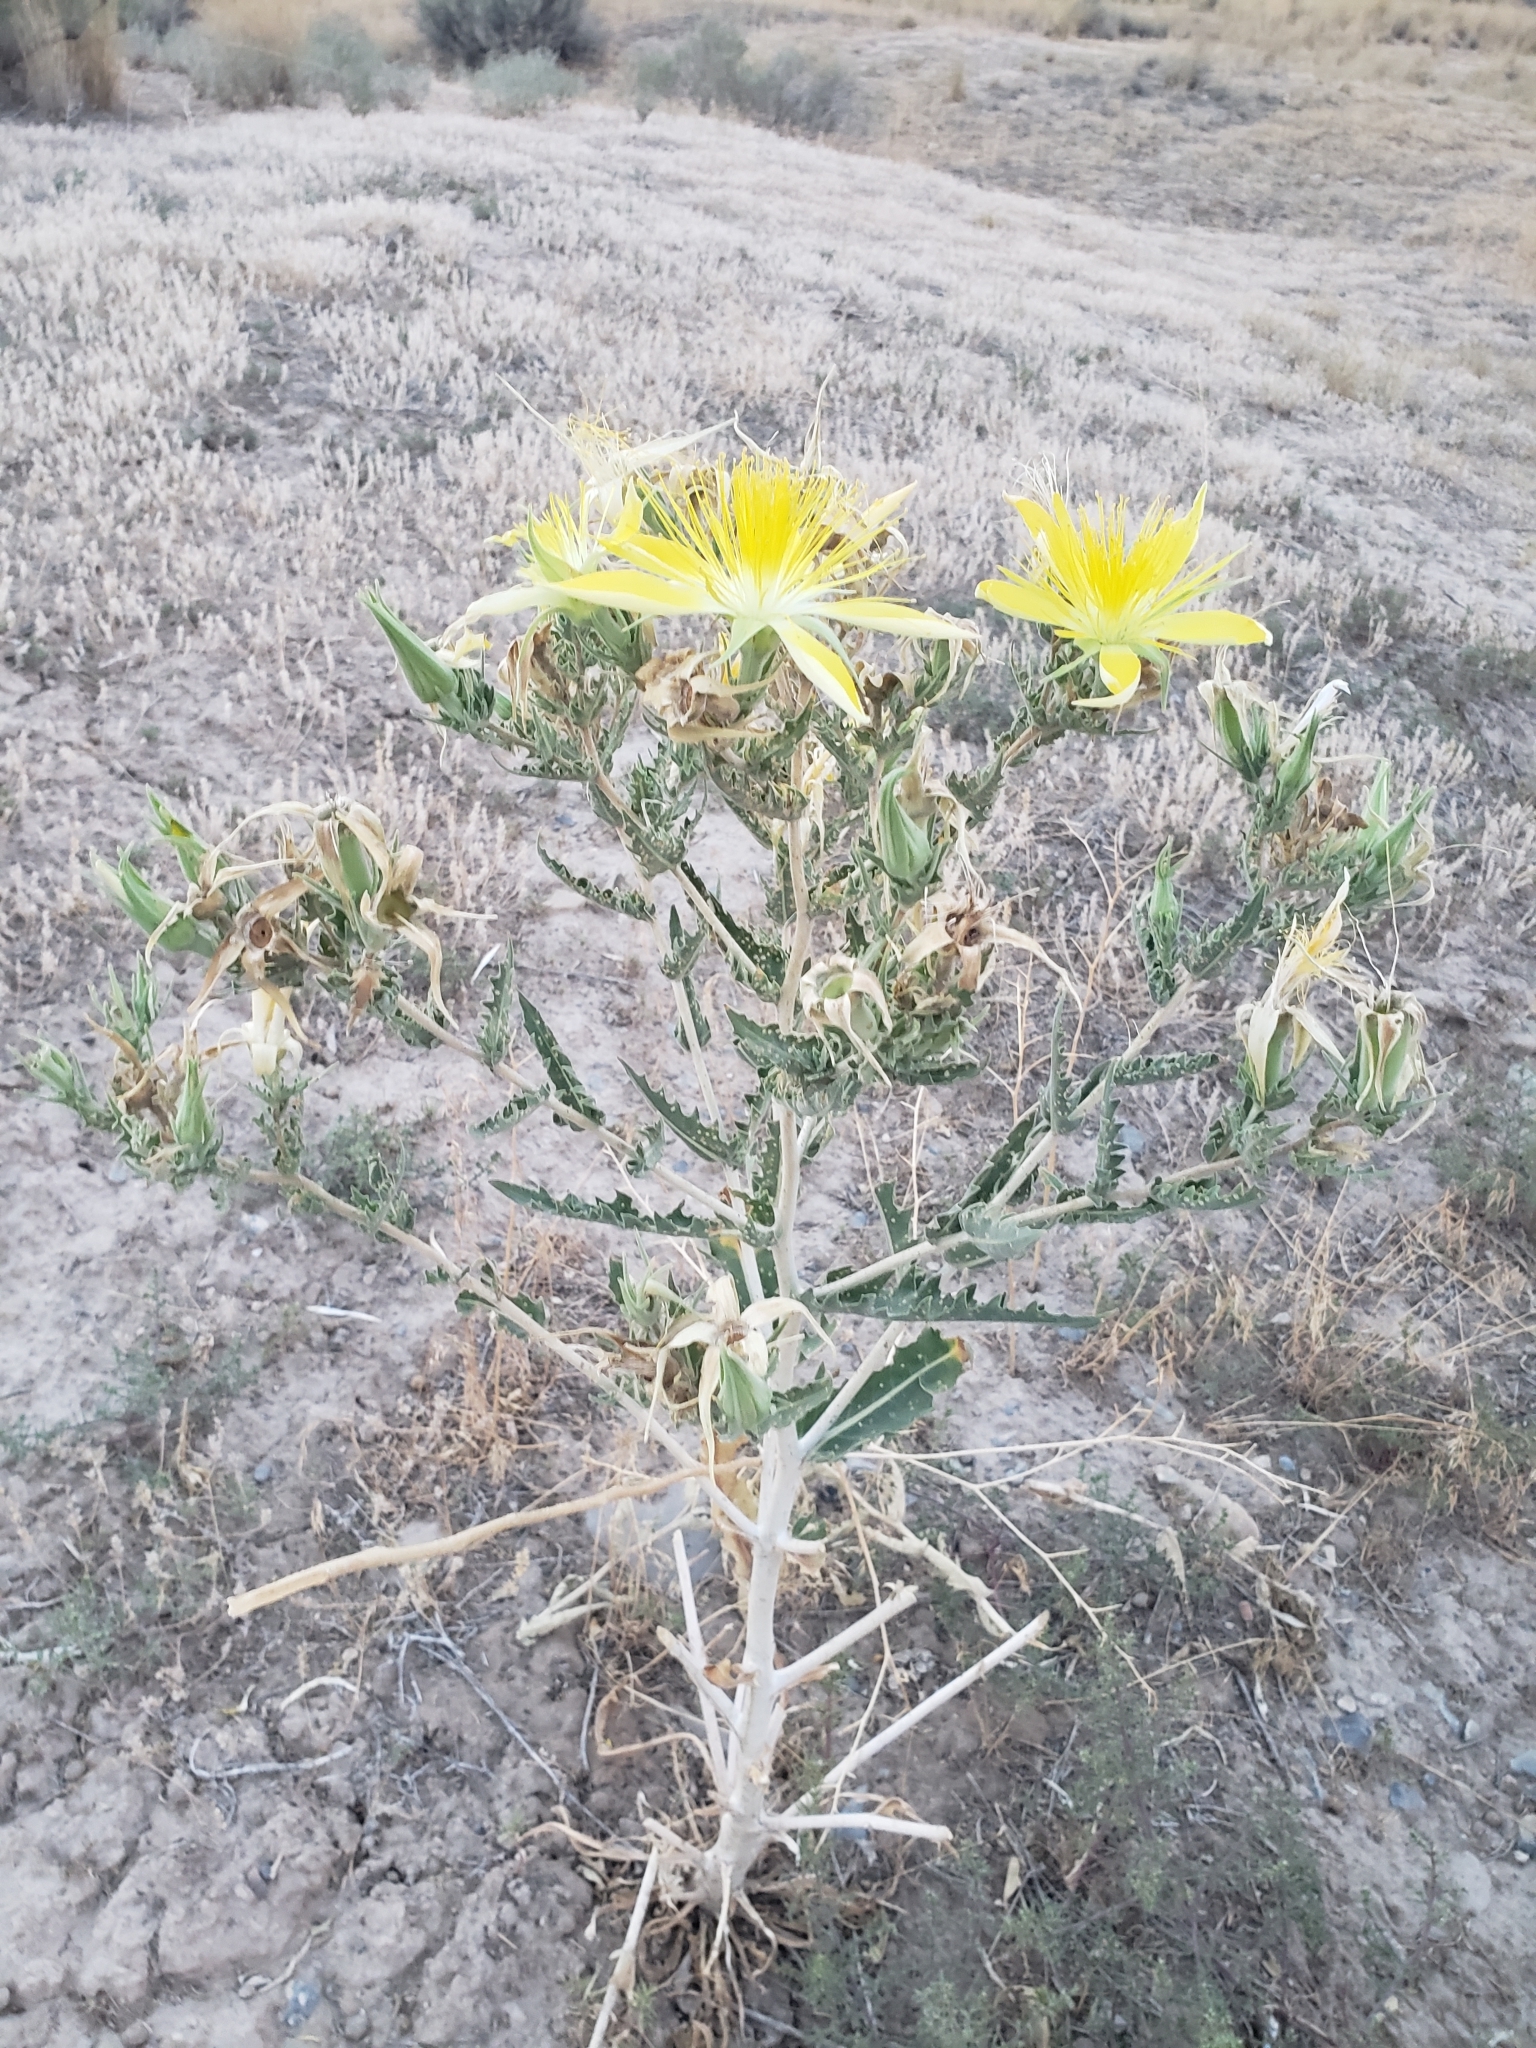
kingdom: Plantae
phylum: Tracheophyta
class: Magnoliopsida
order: Cornales
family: Loasaceae
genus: Mentzelia
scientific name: Mentzelia laevicaulis
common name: Smooth-stem blazingstar
